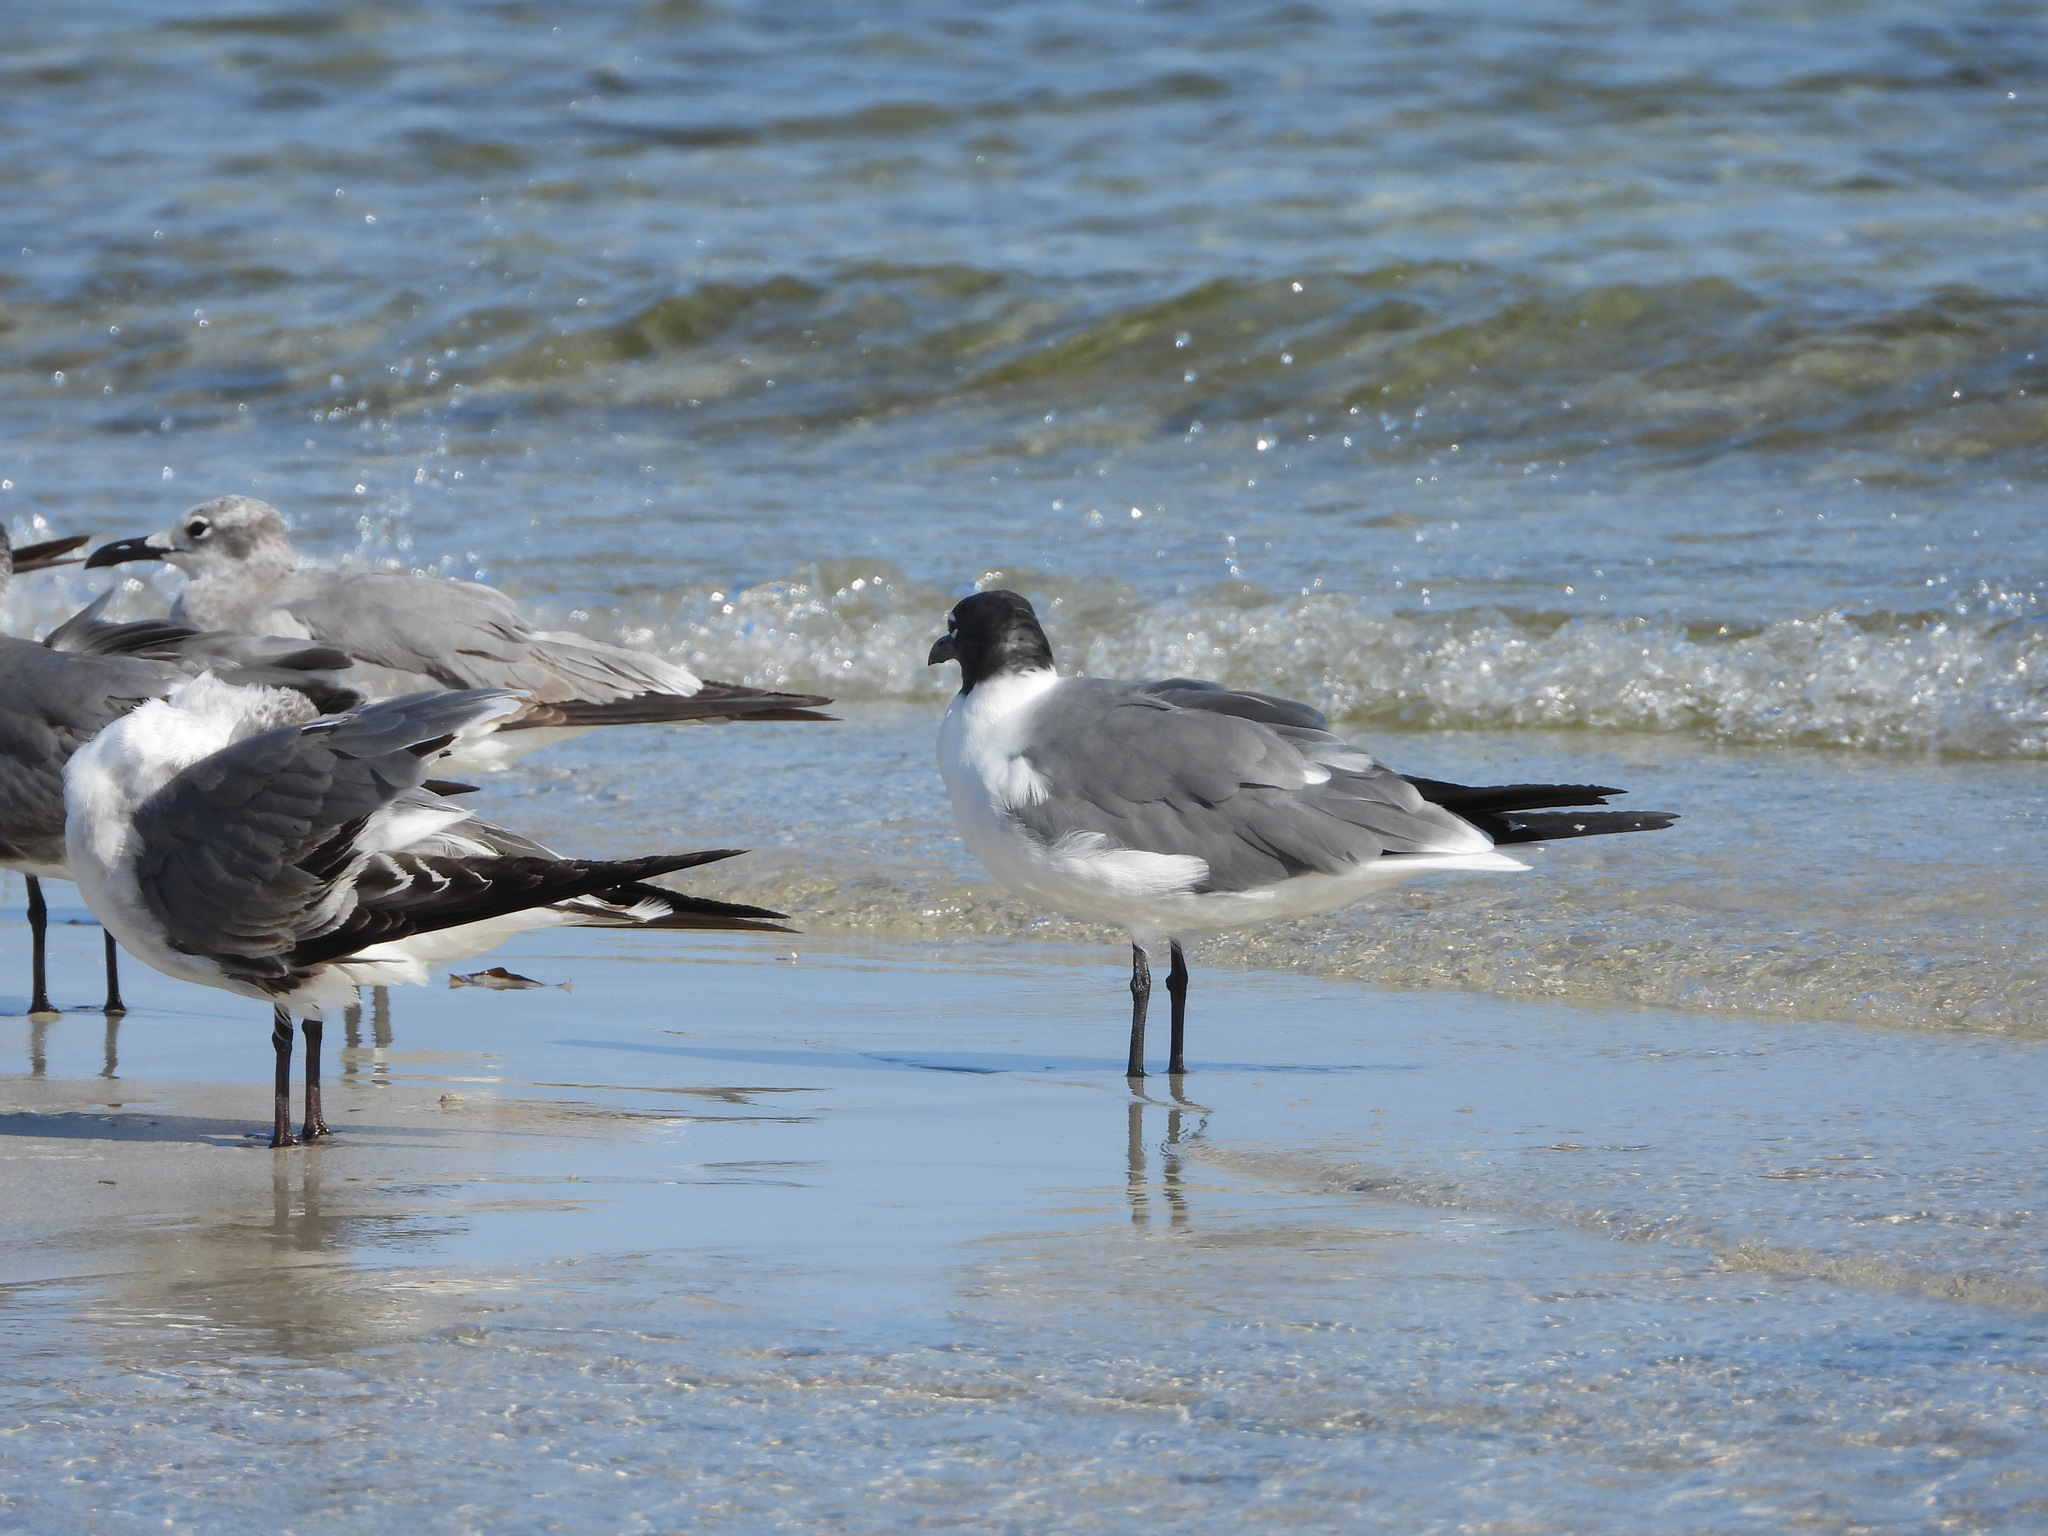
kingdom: Animalia
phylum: Chordata
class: Aves
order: Charadriiformes
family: Laridae
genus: Leucophaeus
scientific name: Leucophaeus atricilla
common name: Laughing gull
